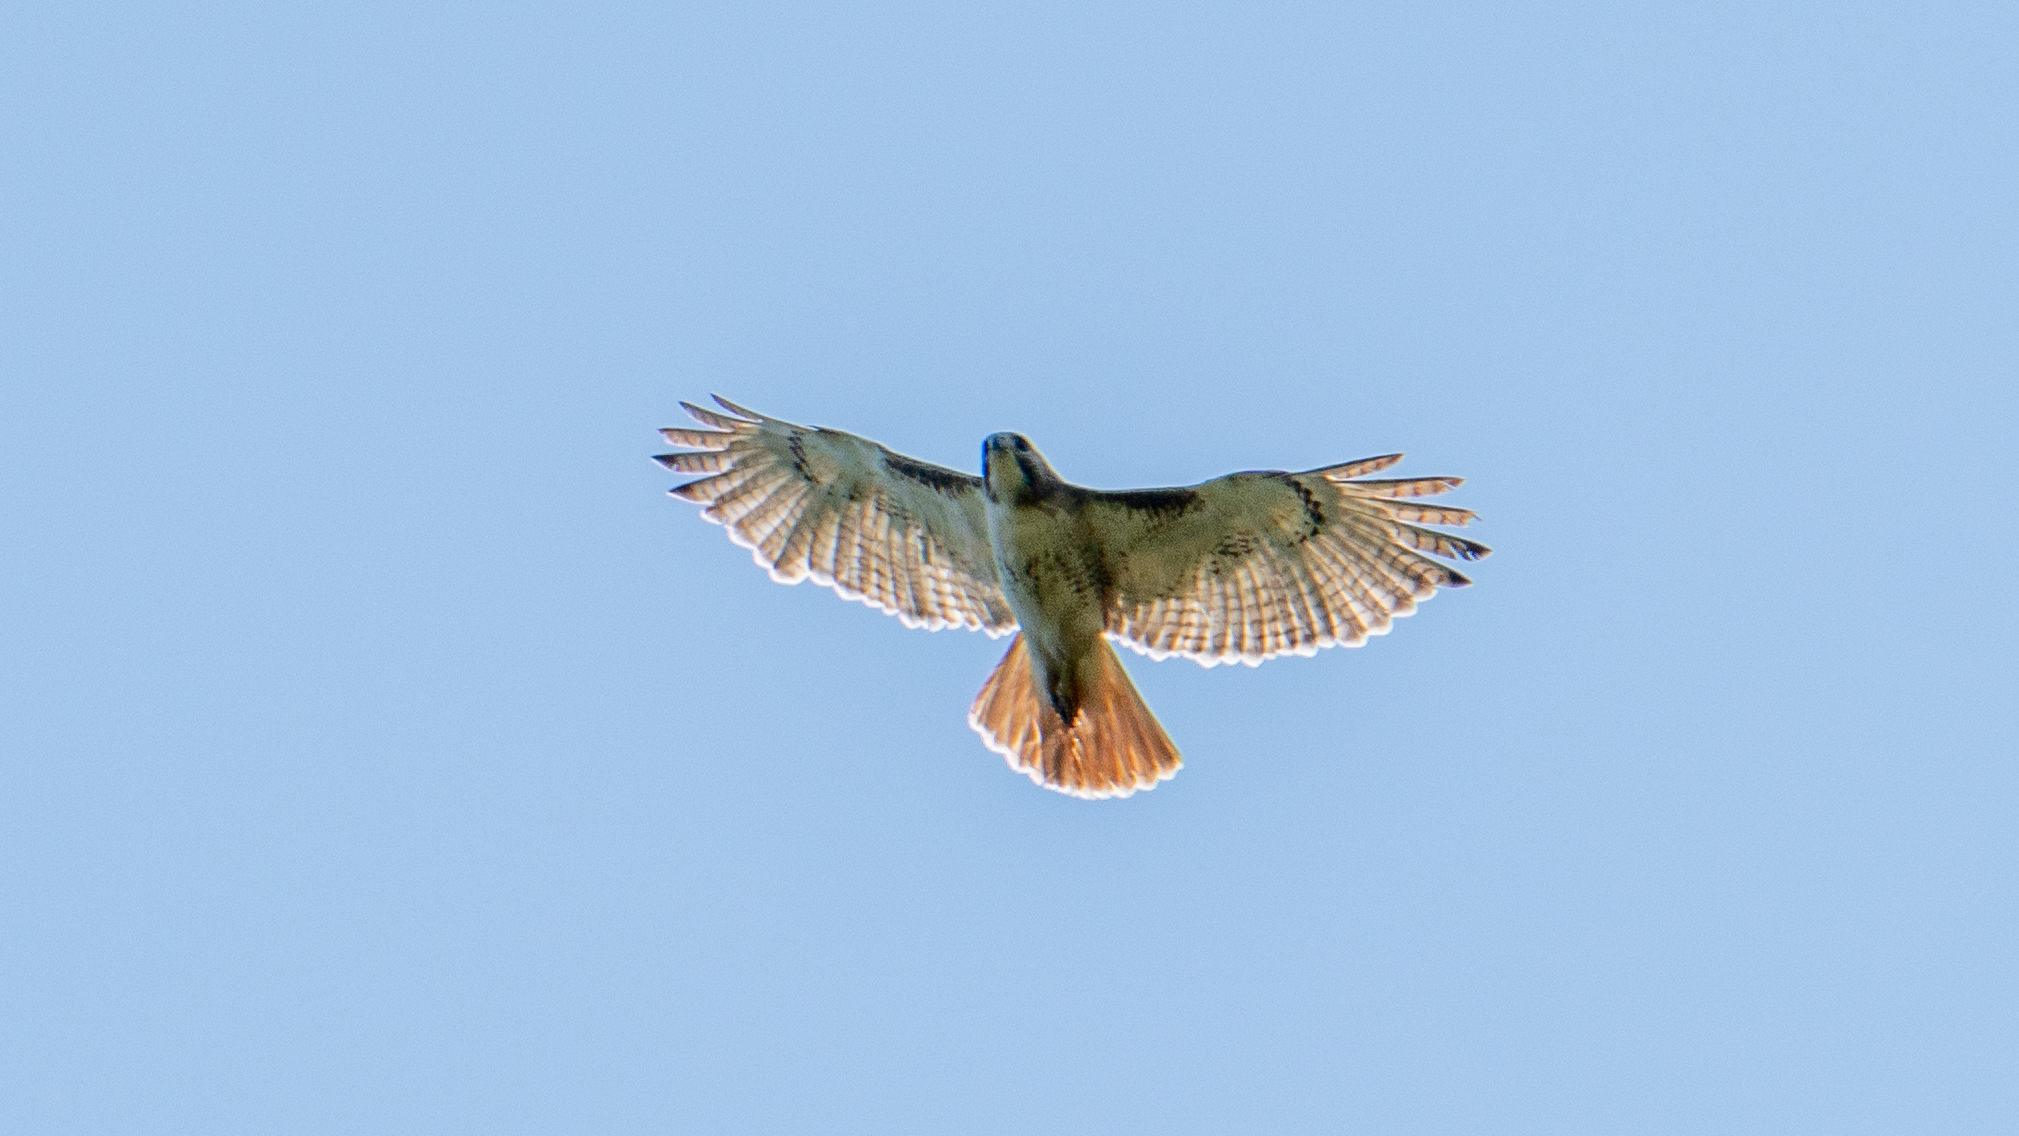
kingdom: Animalia
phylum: Chordata
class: Aves
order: Accipitriformes
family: Accipitridae
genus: Buteo
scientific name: Buteo jamaicensis
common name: Red-tailed hawk
